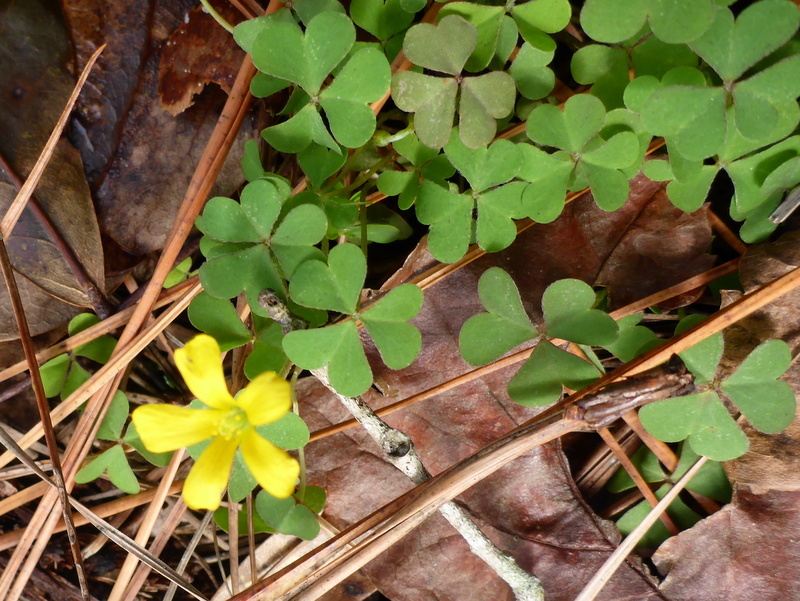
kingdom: Plantae
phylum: Tracheophyta
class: Magnoliopsida
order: Oxalidales
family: Oxalidaceae
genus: Oxalis
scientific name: Oxalis corniculata
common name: Procumbent yellow-sorrel
